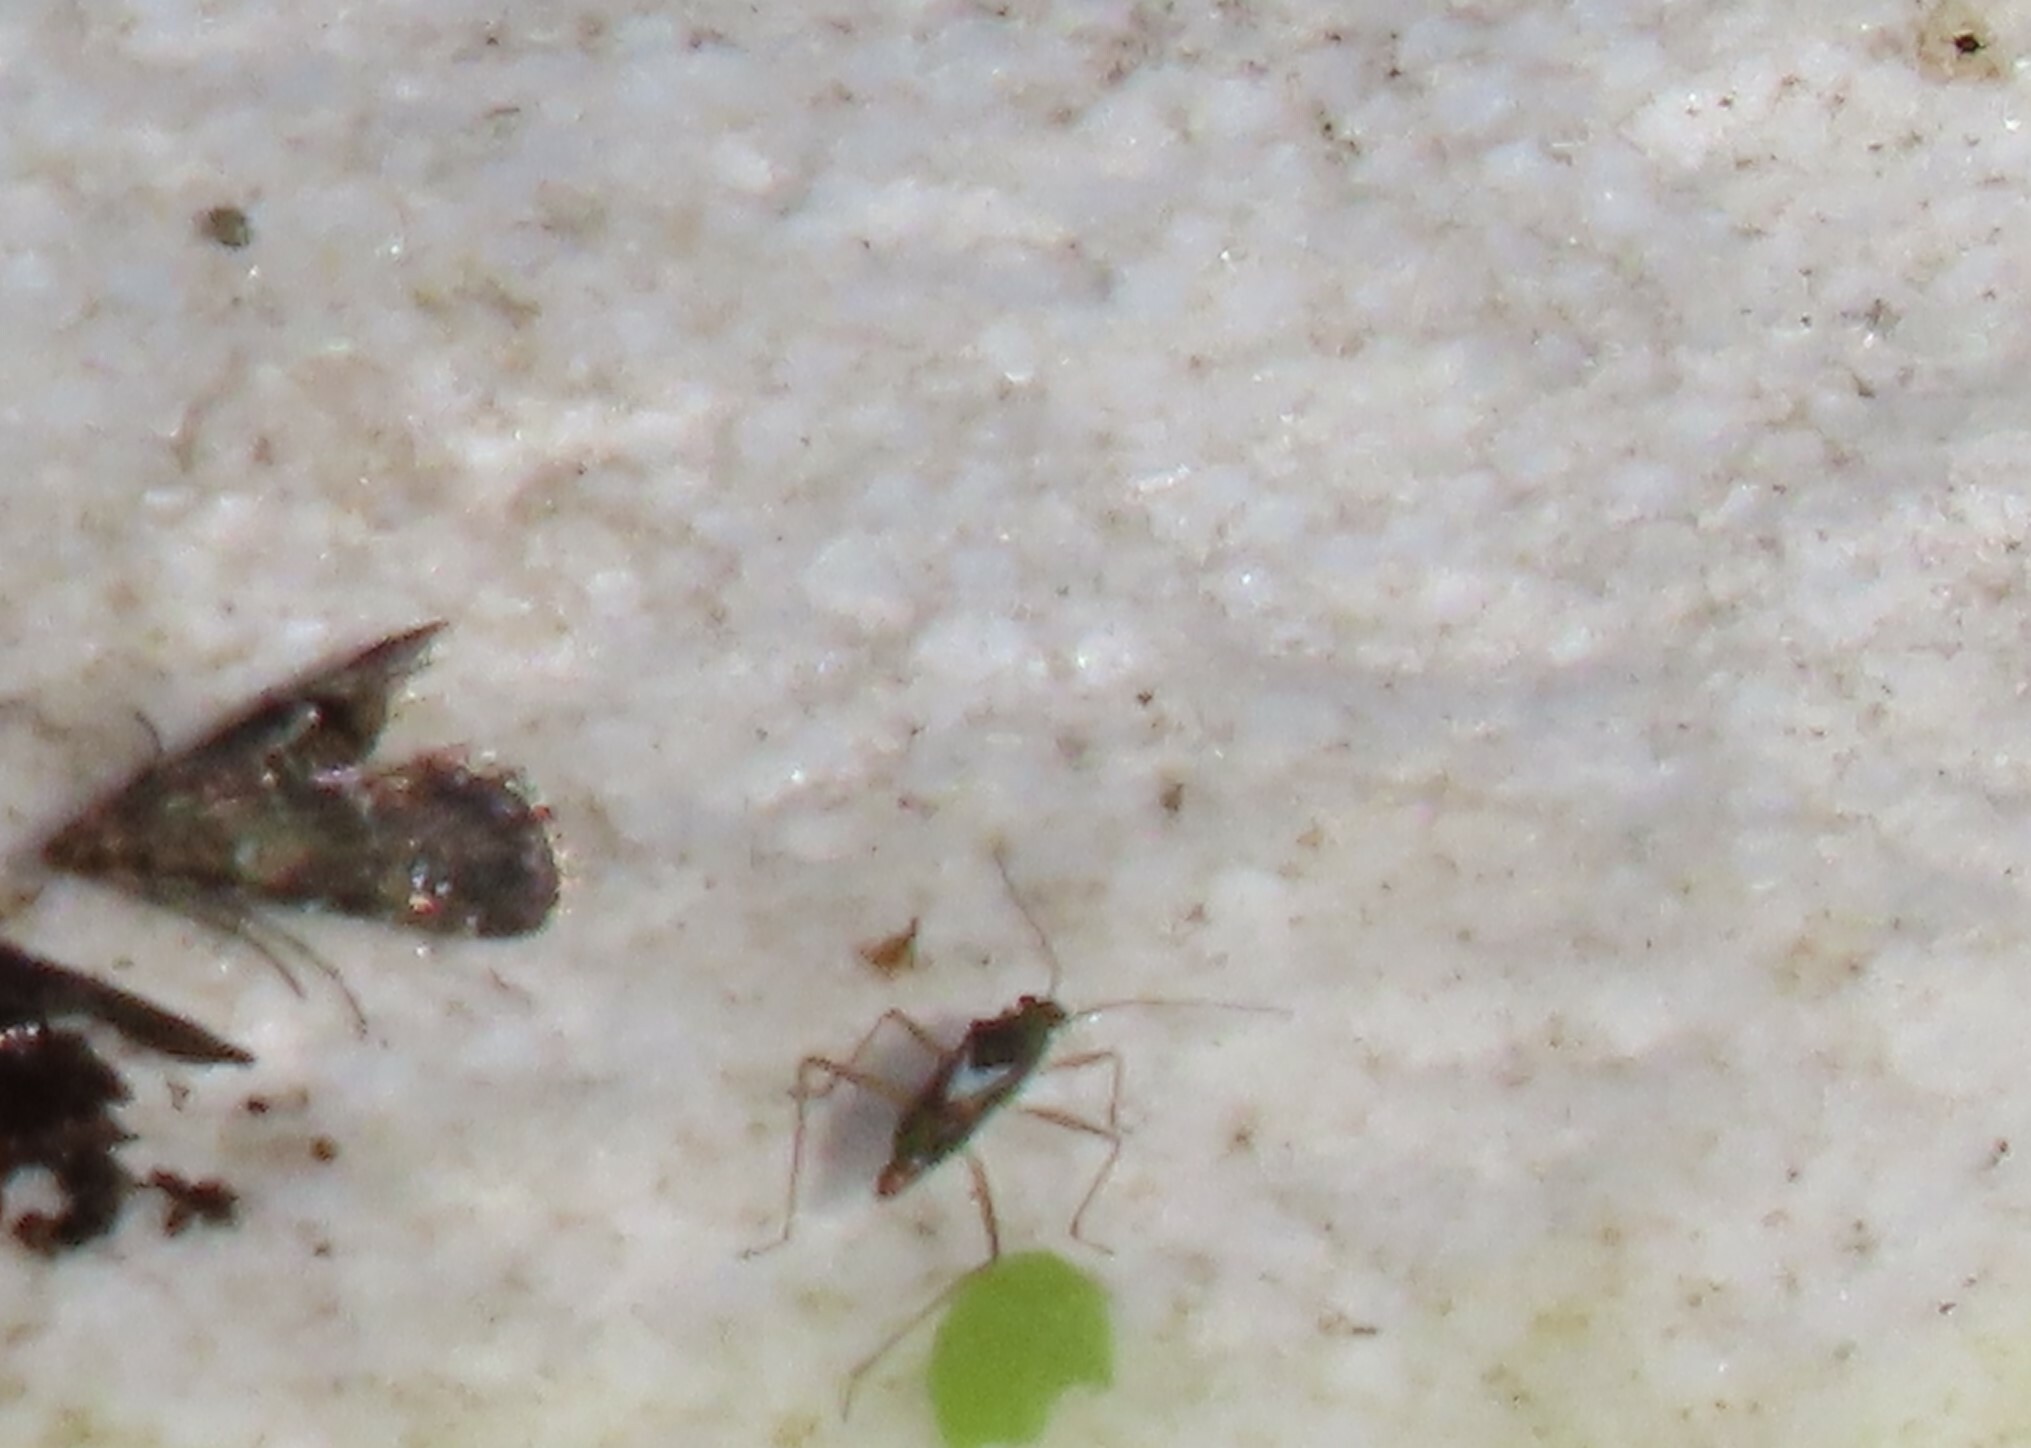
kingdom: Animalia
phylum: Arthropoda
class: Insecta
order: Hemiptera
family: Mesoveliidae
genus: Mesovelia
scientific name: Mesovelia mulsanti
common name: Water treaders
